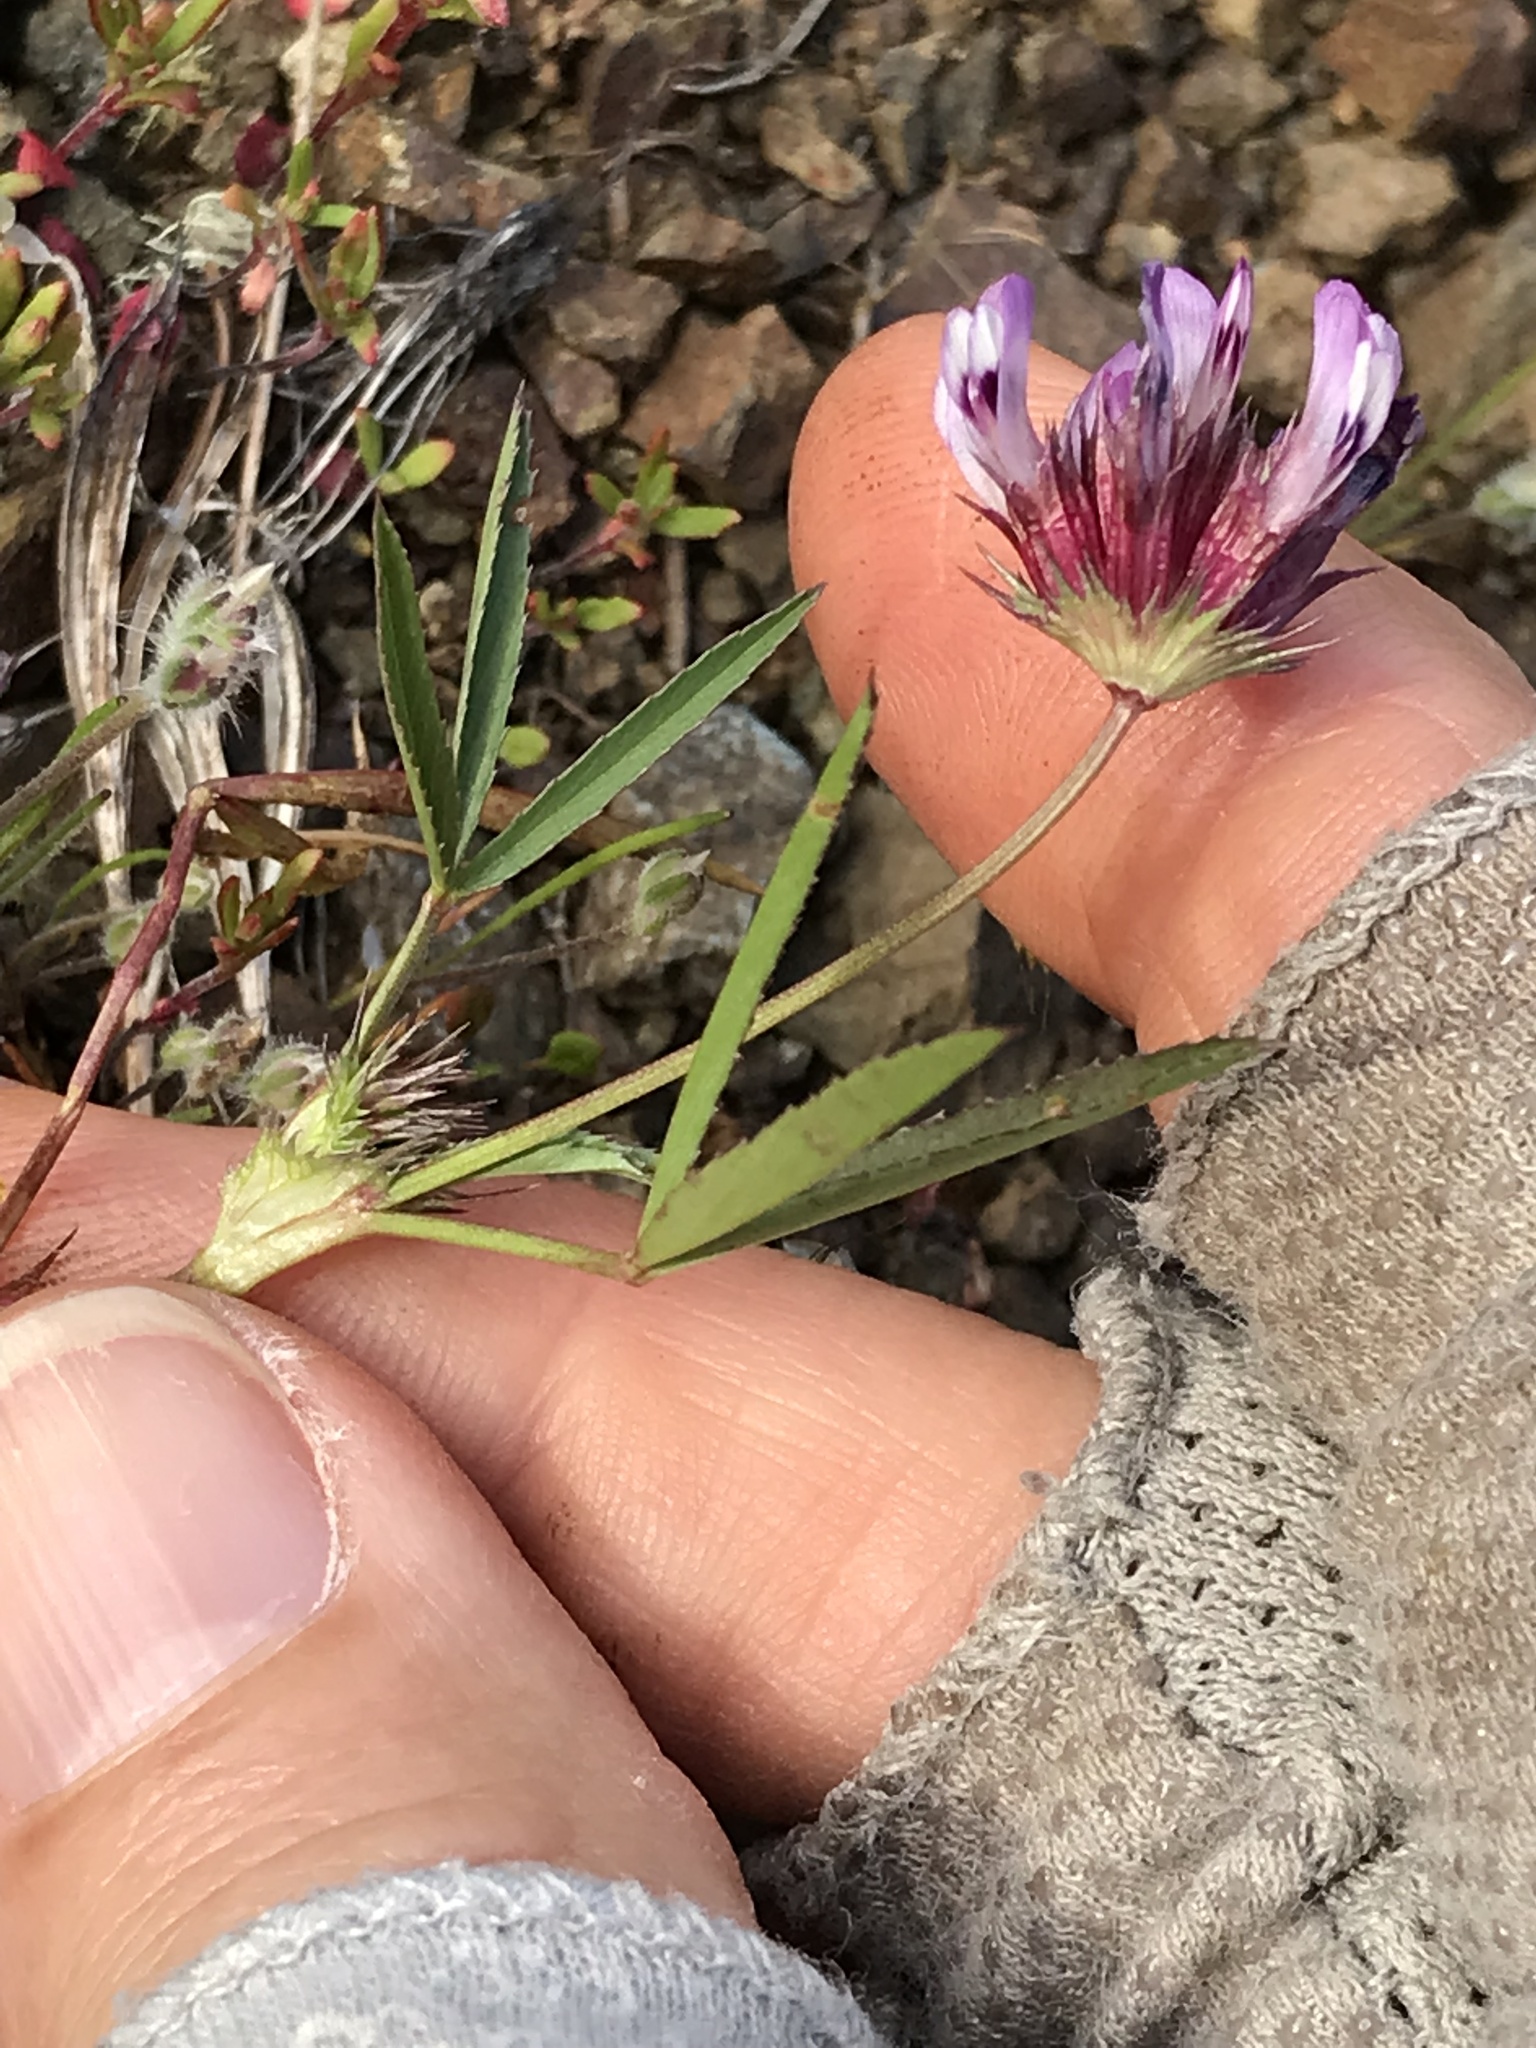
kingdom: Plantae
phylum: Tracheophyta
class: Magnoliopsida
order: Fabales
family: Fabaceae
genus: Trifolium
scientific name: Trifolium willdenovii
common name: Tomcat clover
